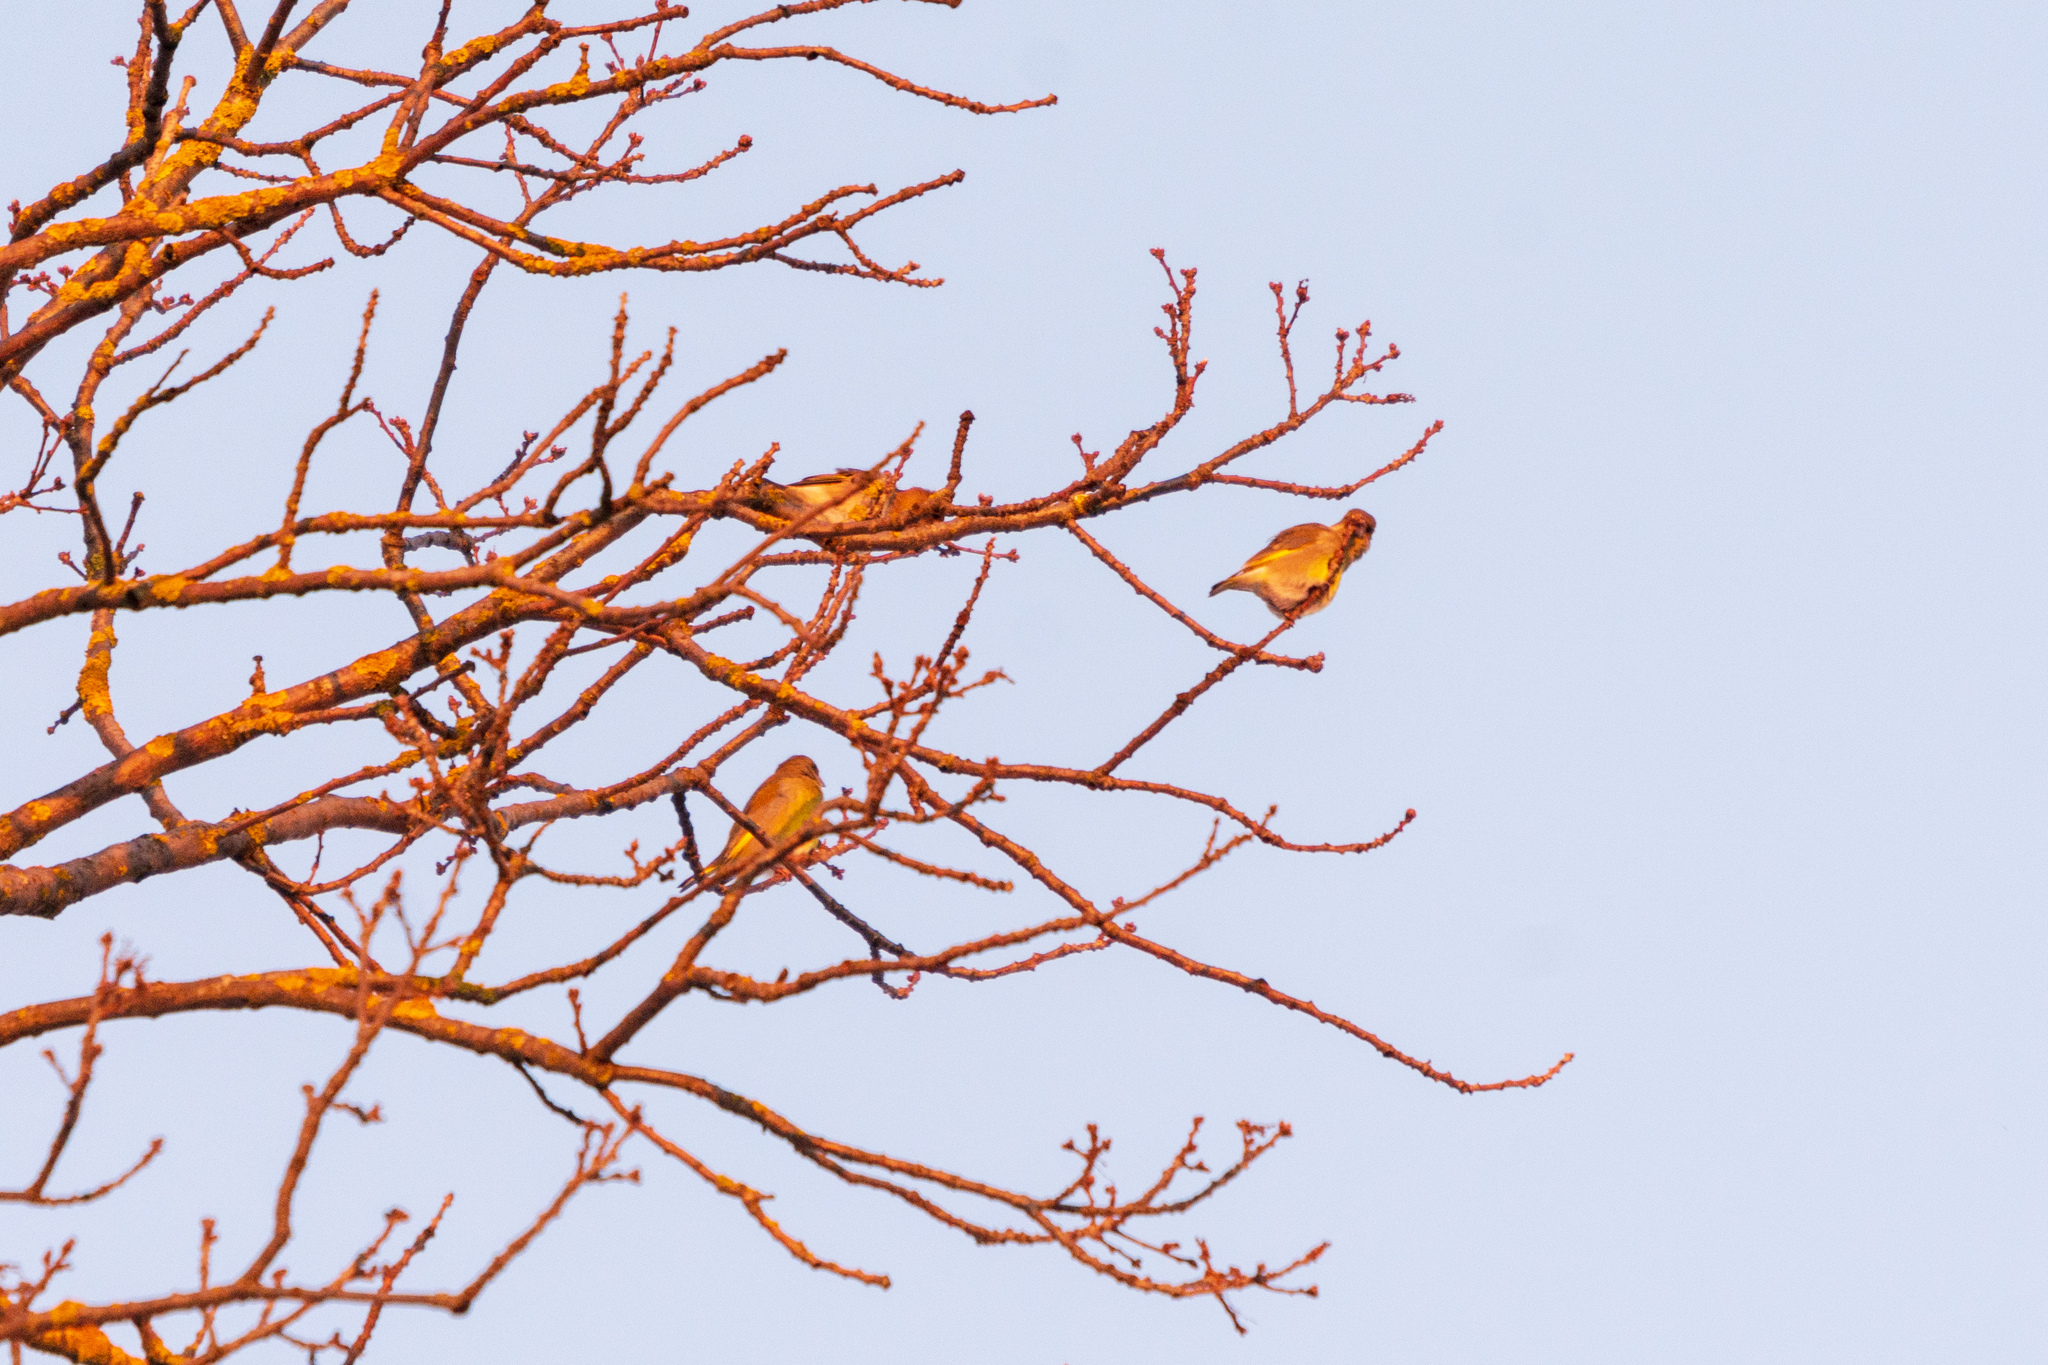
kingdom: Plantae
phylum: Tracheophyta
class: Liliopsida
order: Poales
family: Poaceae
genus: Chloris
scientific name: Chloris chloris
